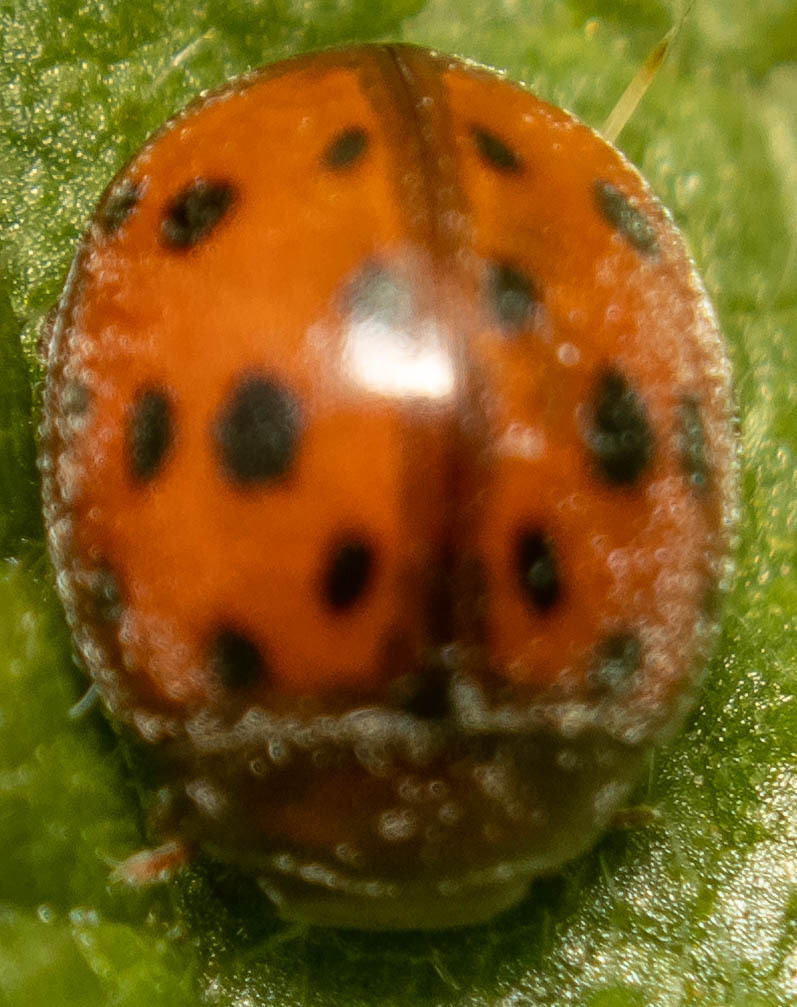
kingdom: Animalia
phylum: Arthropoda
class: Insecta
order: Coleoptera
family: Coccinellidae
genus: Subcoccinella
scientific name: Subcoccinella vigintiquatuorpunctata
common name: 24-spot ladybird
